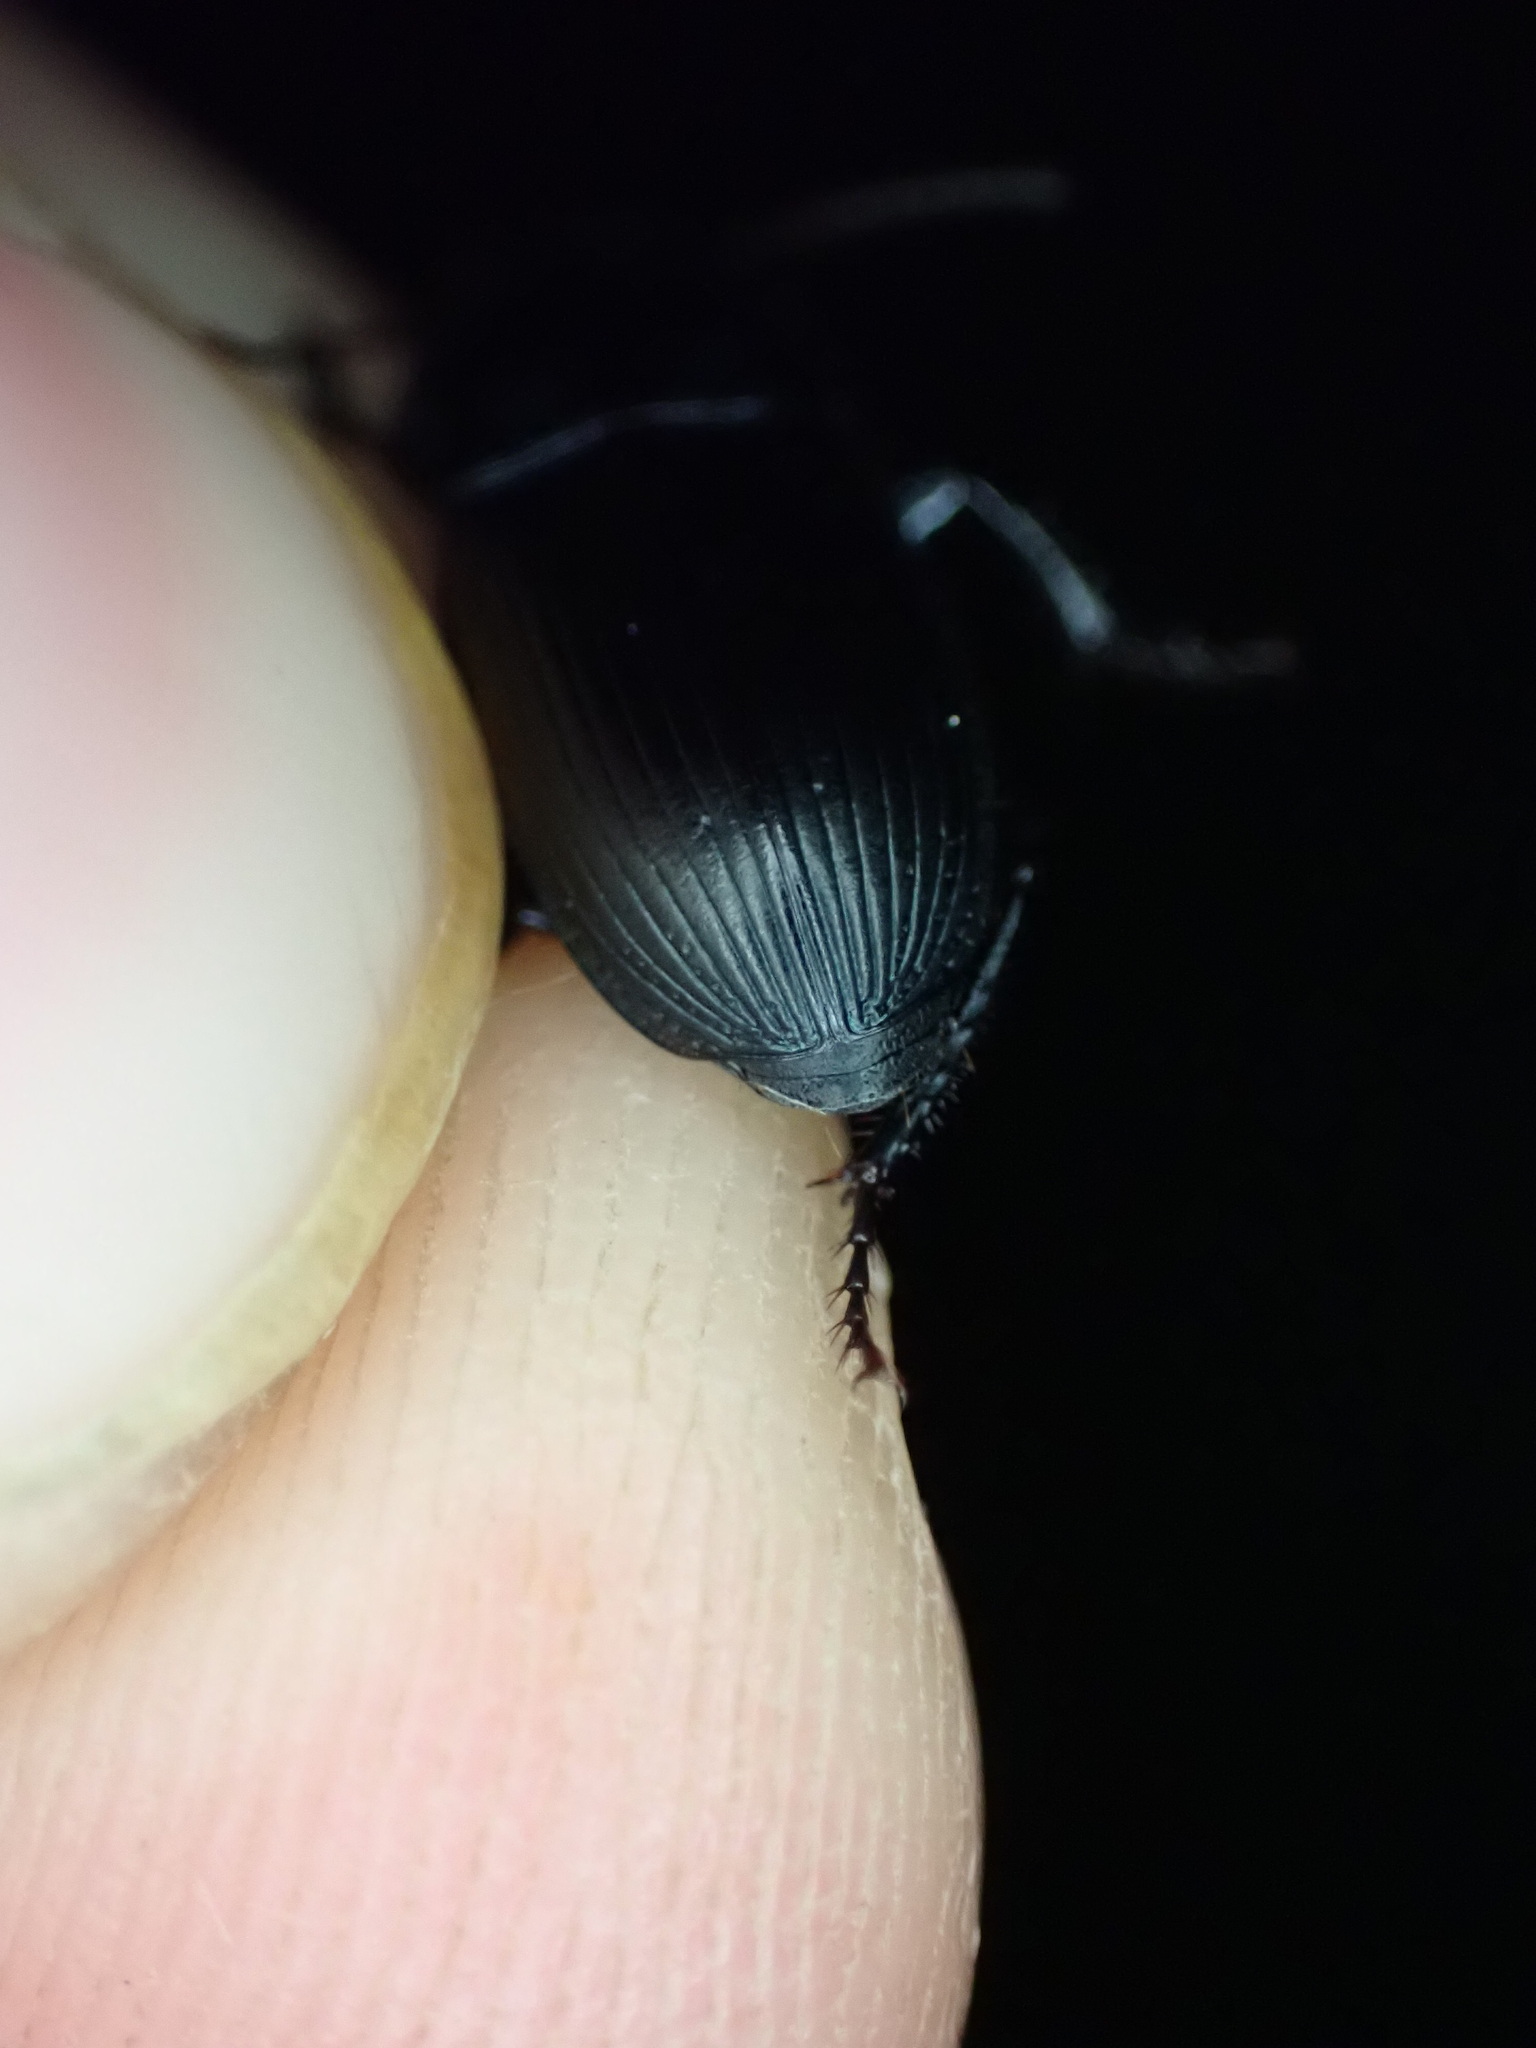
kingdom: Animalia
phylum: Arthropoda
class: Insecta
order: Coleoptera
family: Carabidae
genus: Harpalus
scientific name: Harpalus dimidiatus
